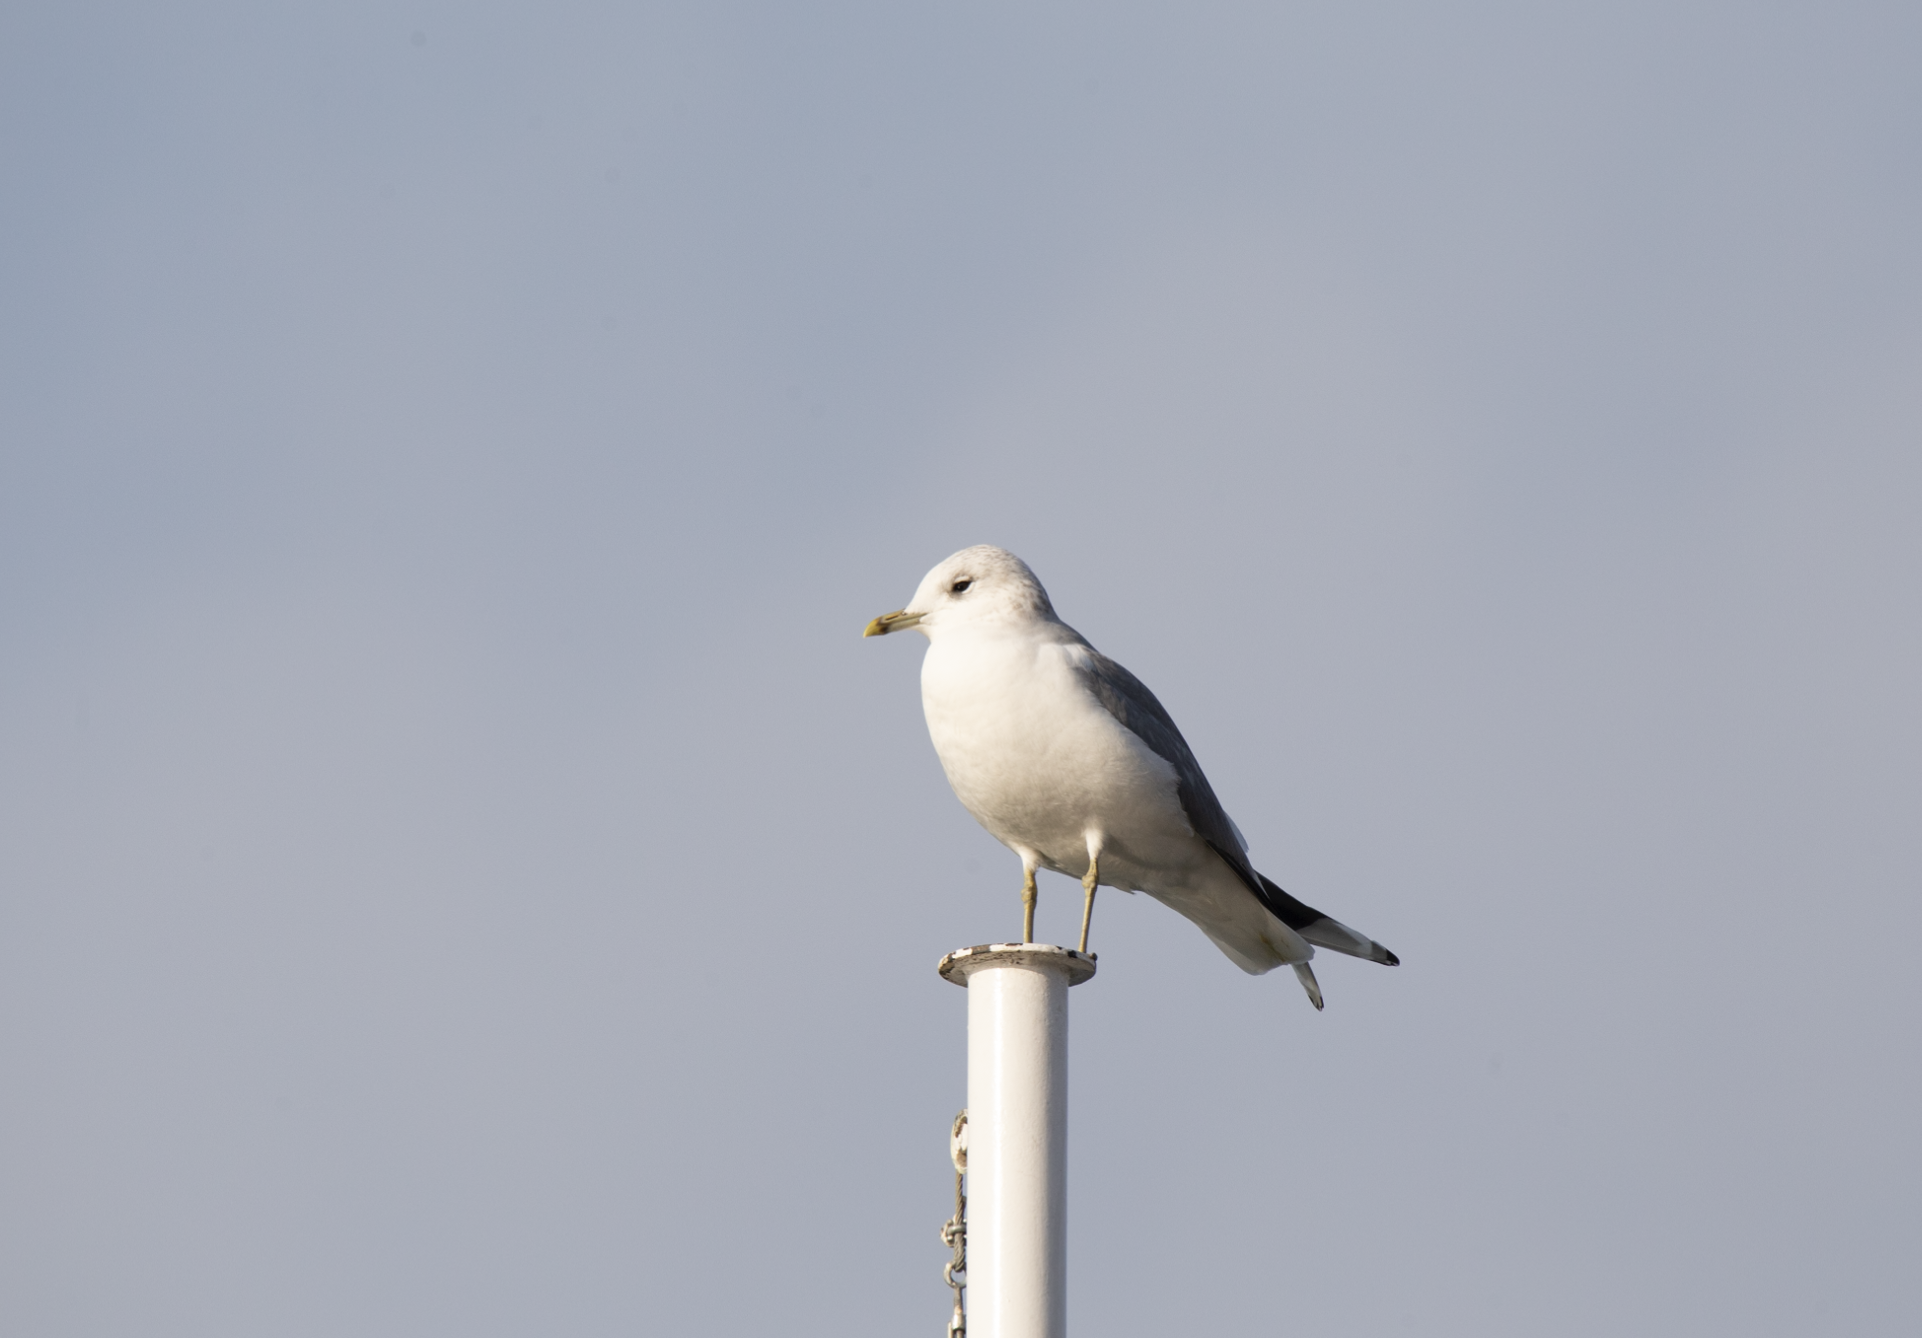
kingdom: Animalia
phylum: Chordata
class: Aves
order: Charadriiformes
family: Laridae
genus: Larus
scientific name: Larus canus
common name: Mew gull
